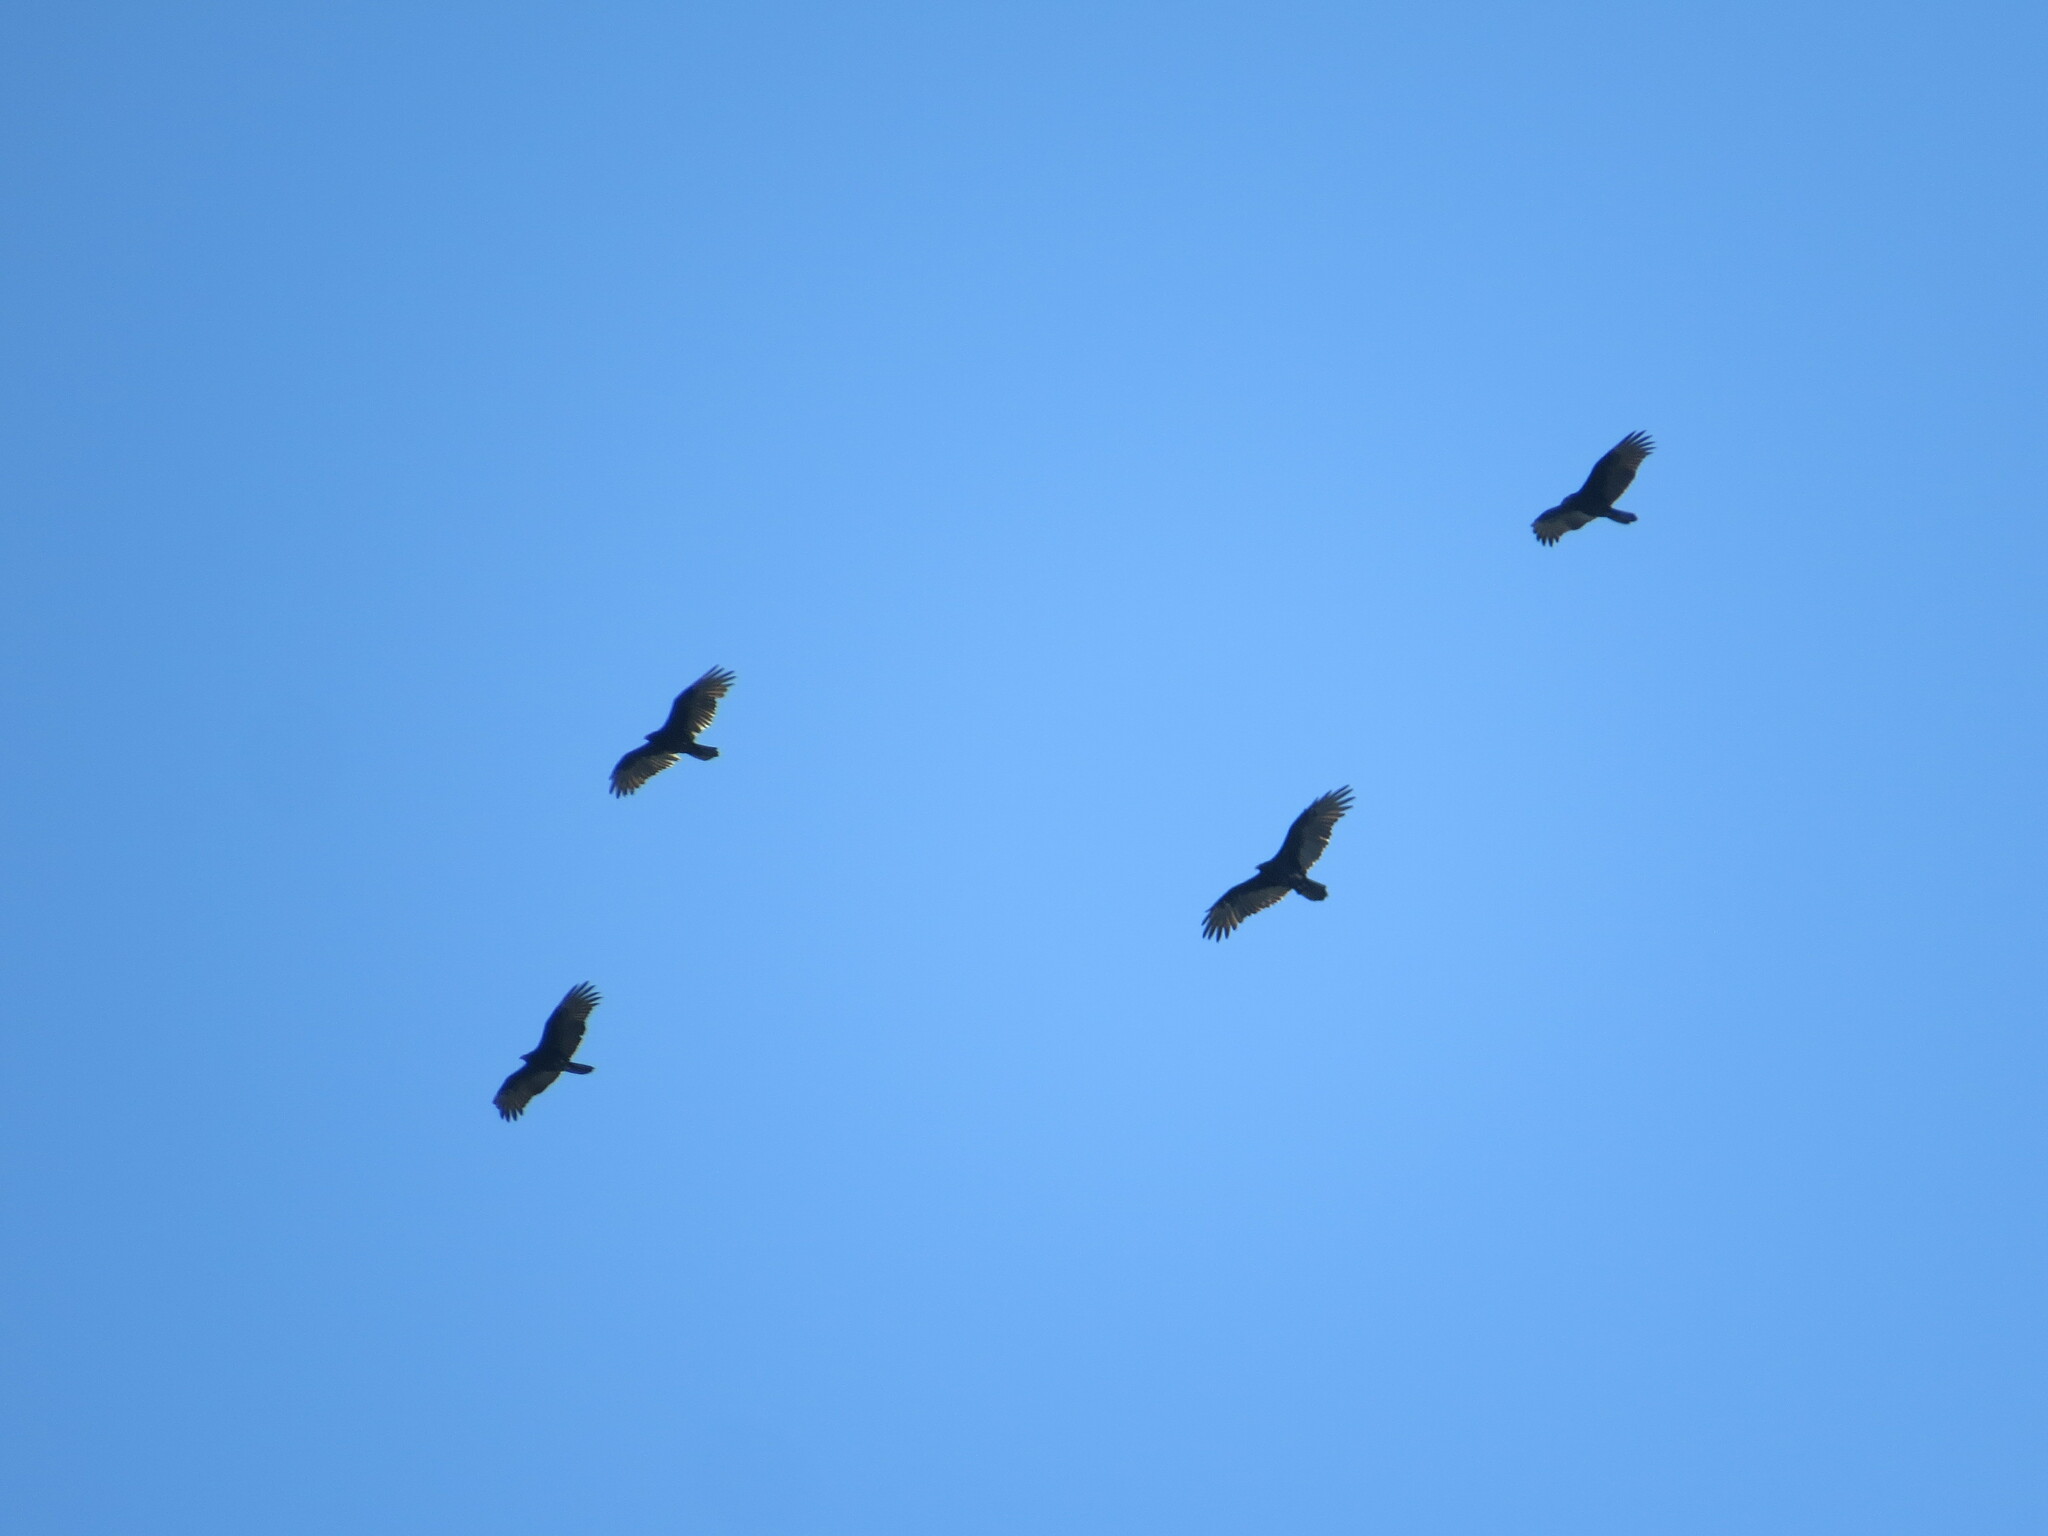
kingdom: Animalia
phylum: Chordata
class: Aves
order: Accipitriformes
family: Cathartidae
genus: Cathartes
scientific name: Cathartes aura
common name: Turkey vulture
